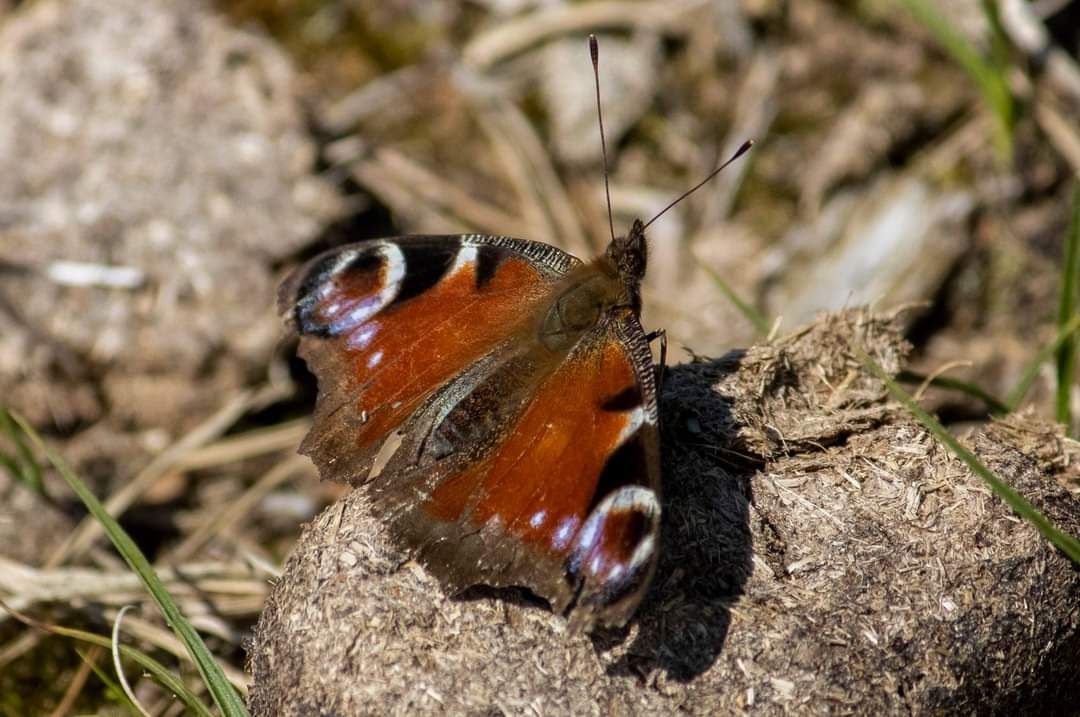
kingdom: Animalia
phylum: Arthropoda
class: Insecta
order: Lepidoptera
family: Nymphalidae
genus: Aglais
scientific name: Aglais io
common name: Peacock
